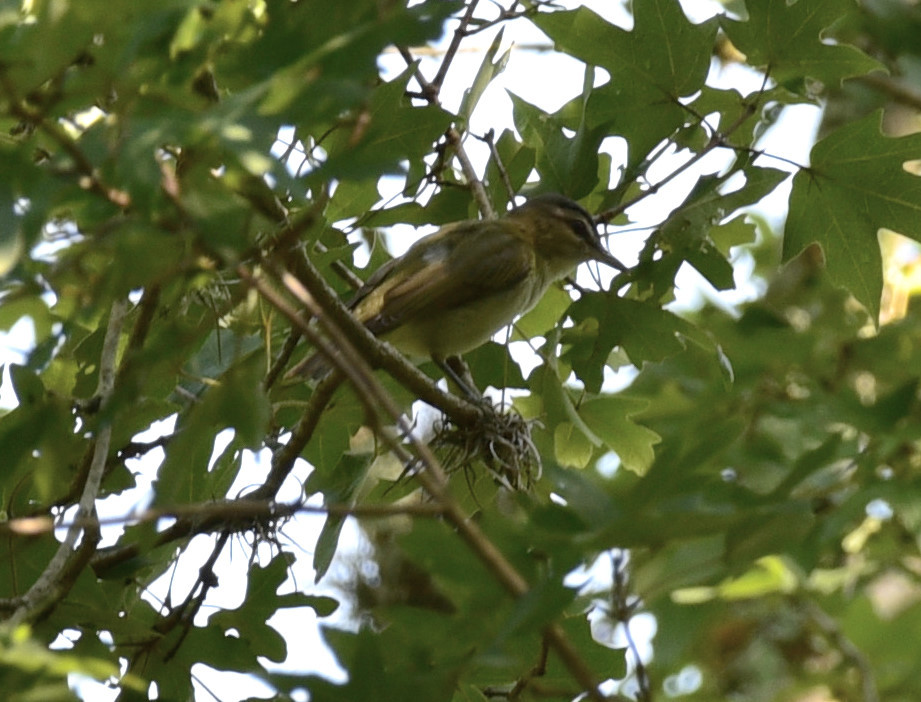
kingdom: Animalia
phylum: Chordata
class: Aves
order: Passeriformes
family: Vireonidae
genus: Vireo
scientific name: Vireo olivaceus
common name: Red-eyed vireo
